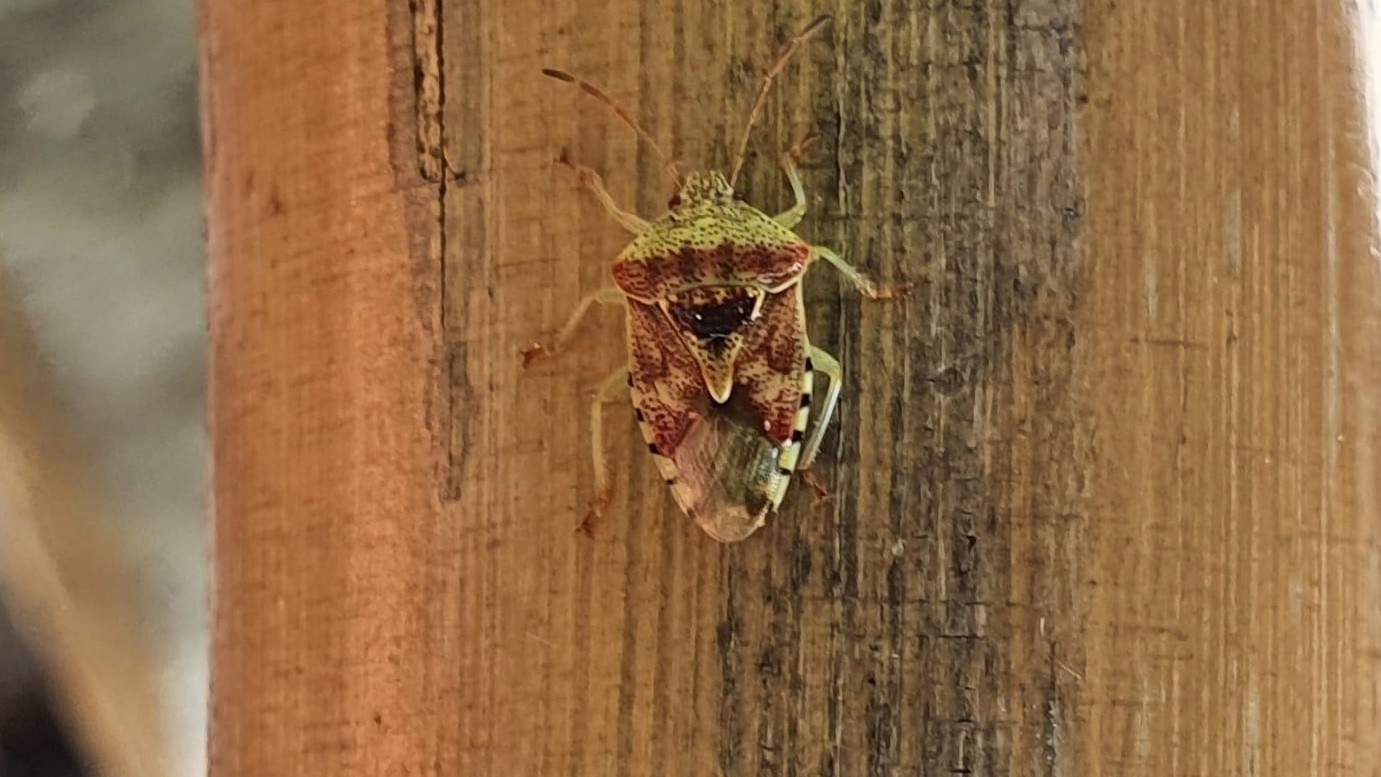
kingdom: Animalia
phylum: Arthropoda
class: Insecta
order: Hemiptera
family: Acanthosomatidae
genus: Elasmucha
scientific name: Elasmucha grisea
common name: Parent bug
